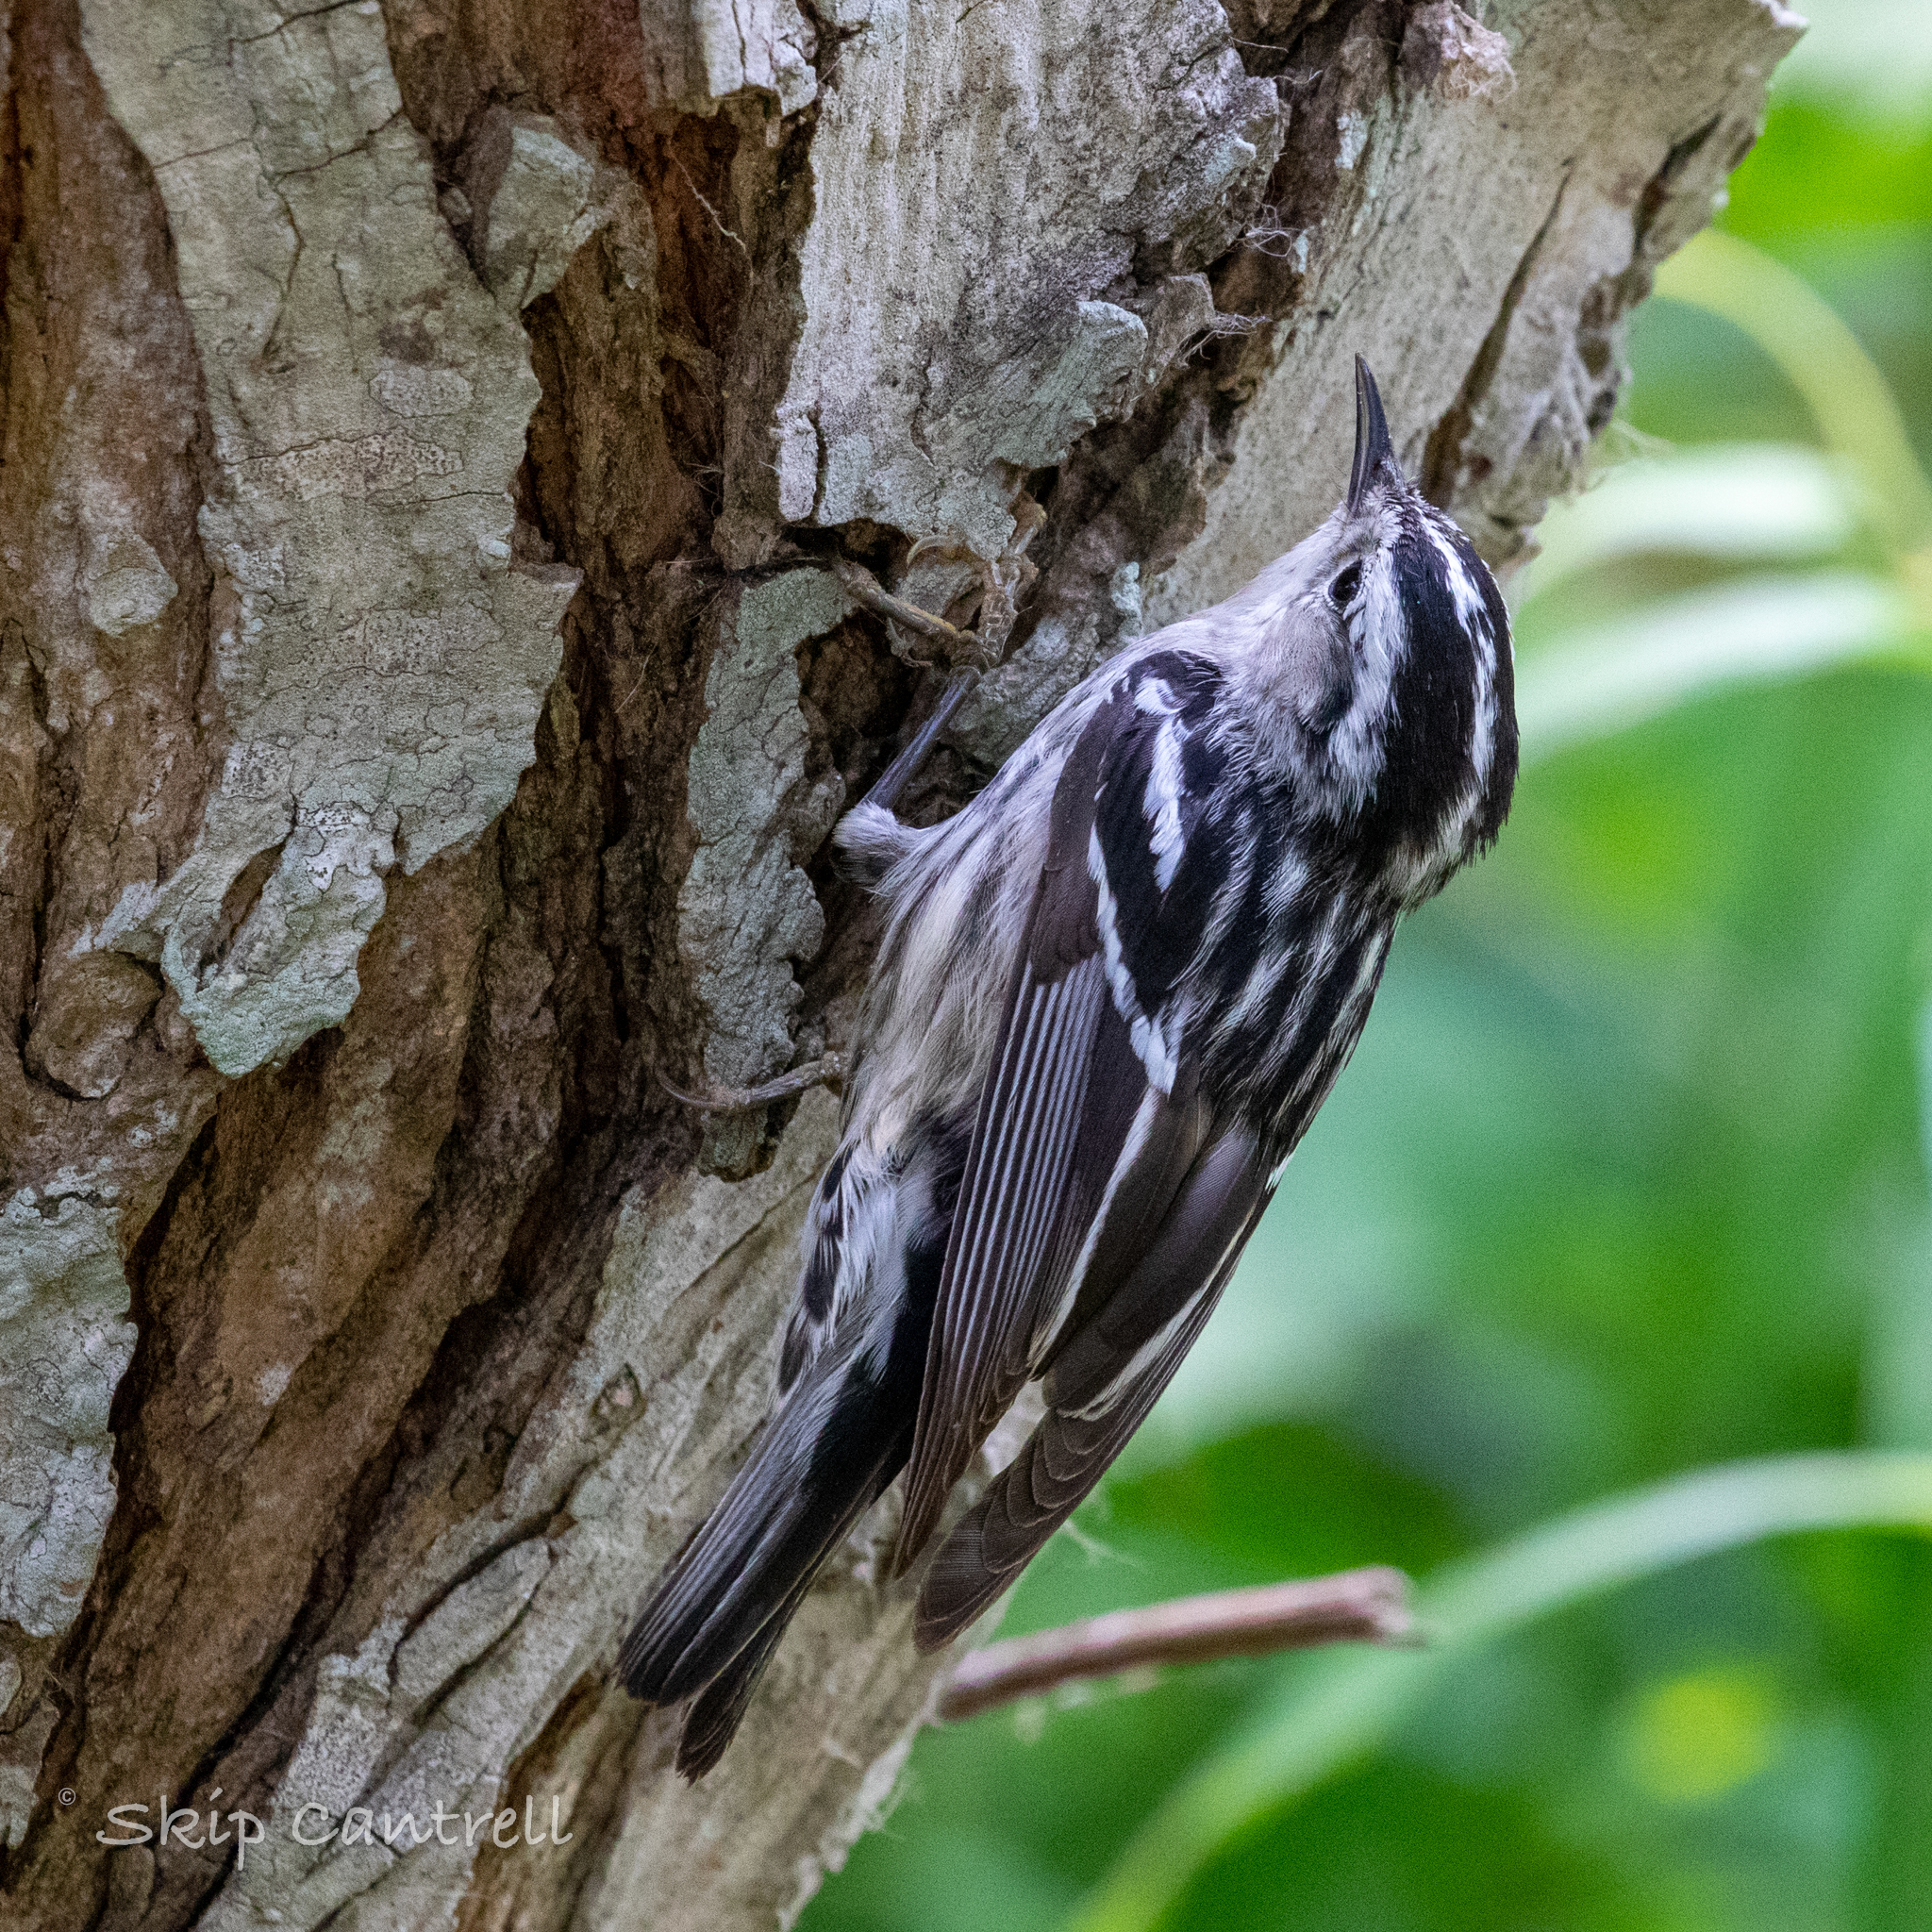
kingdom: Animalia
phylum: Chordata
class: Aves
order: Passeriformes
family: Parulidae
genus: Mniotilta
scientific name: Mniotilta varia
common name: Black-and-white warbler
